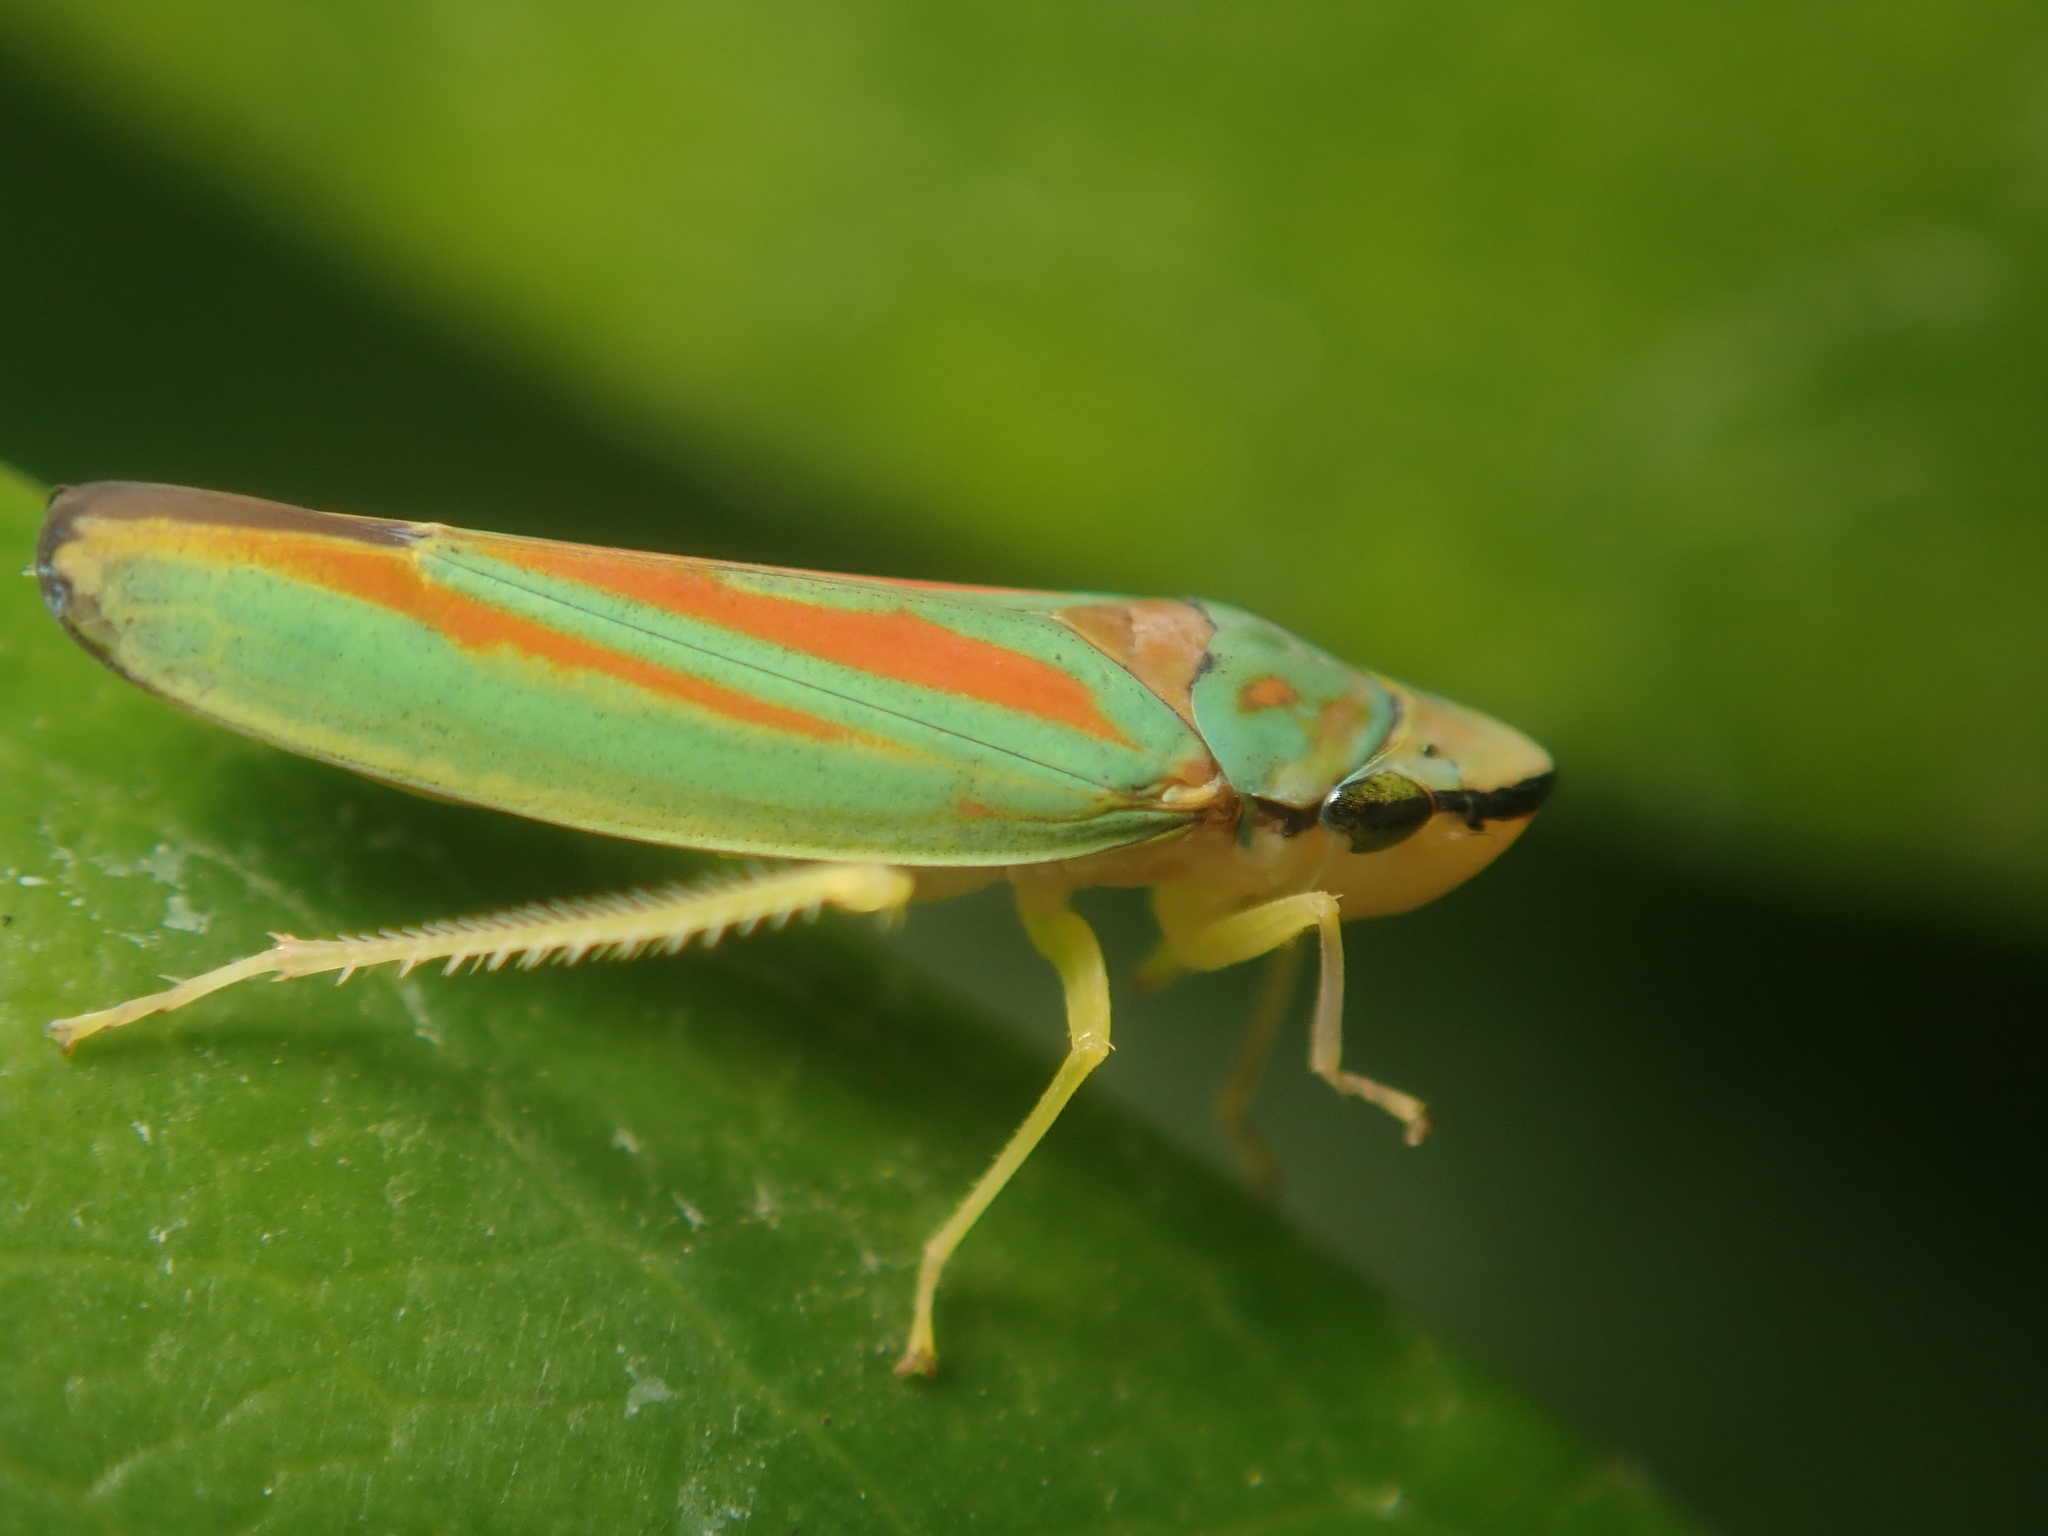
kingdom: Animalia
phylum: Arthropoda
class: Insecta
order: Hemiptera
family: Cicadellidae
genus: Graphocephala
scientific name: Graphocephala fennahi
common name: Rhododendron leafhopper
